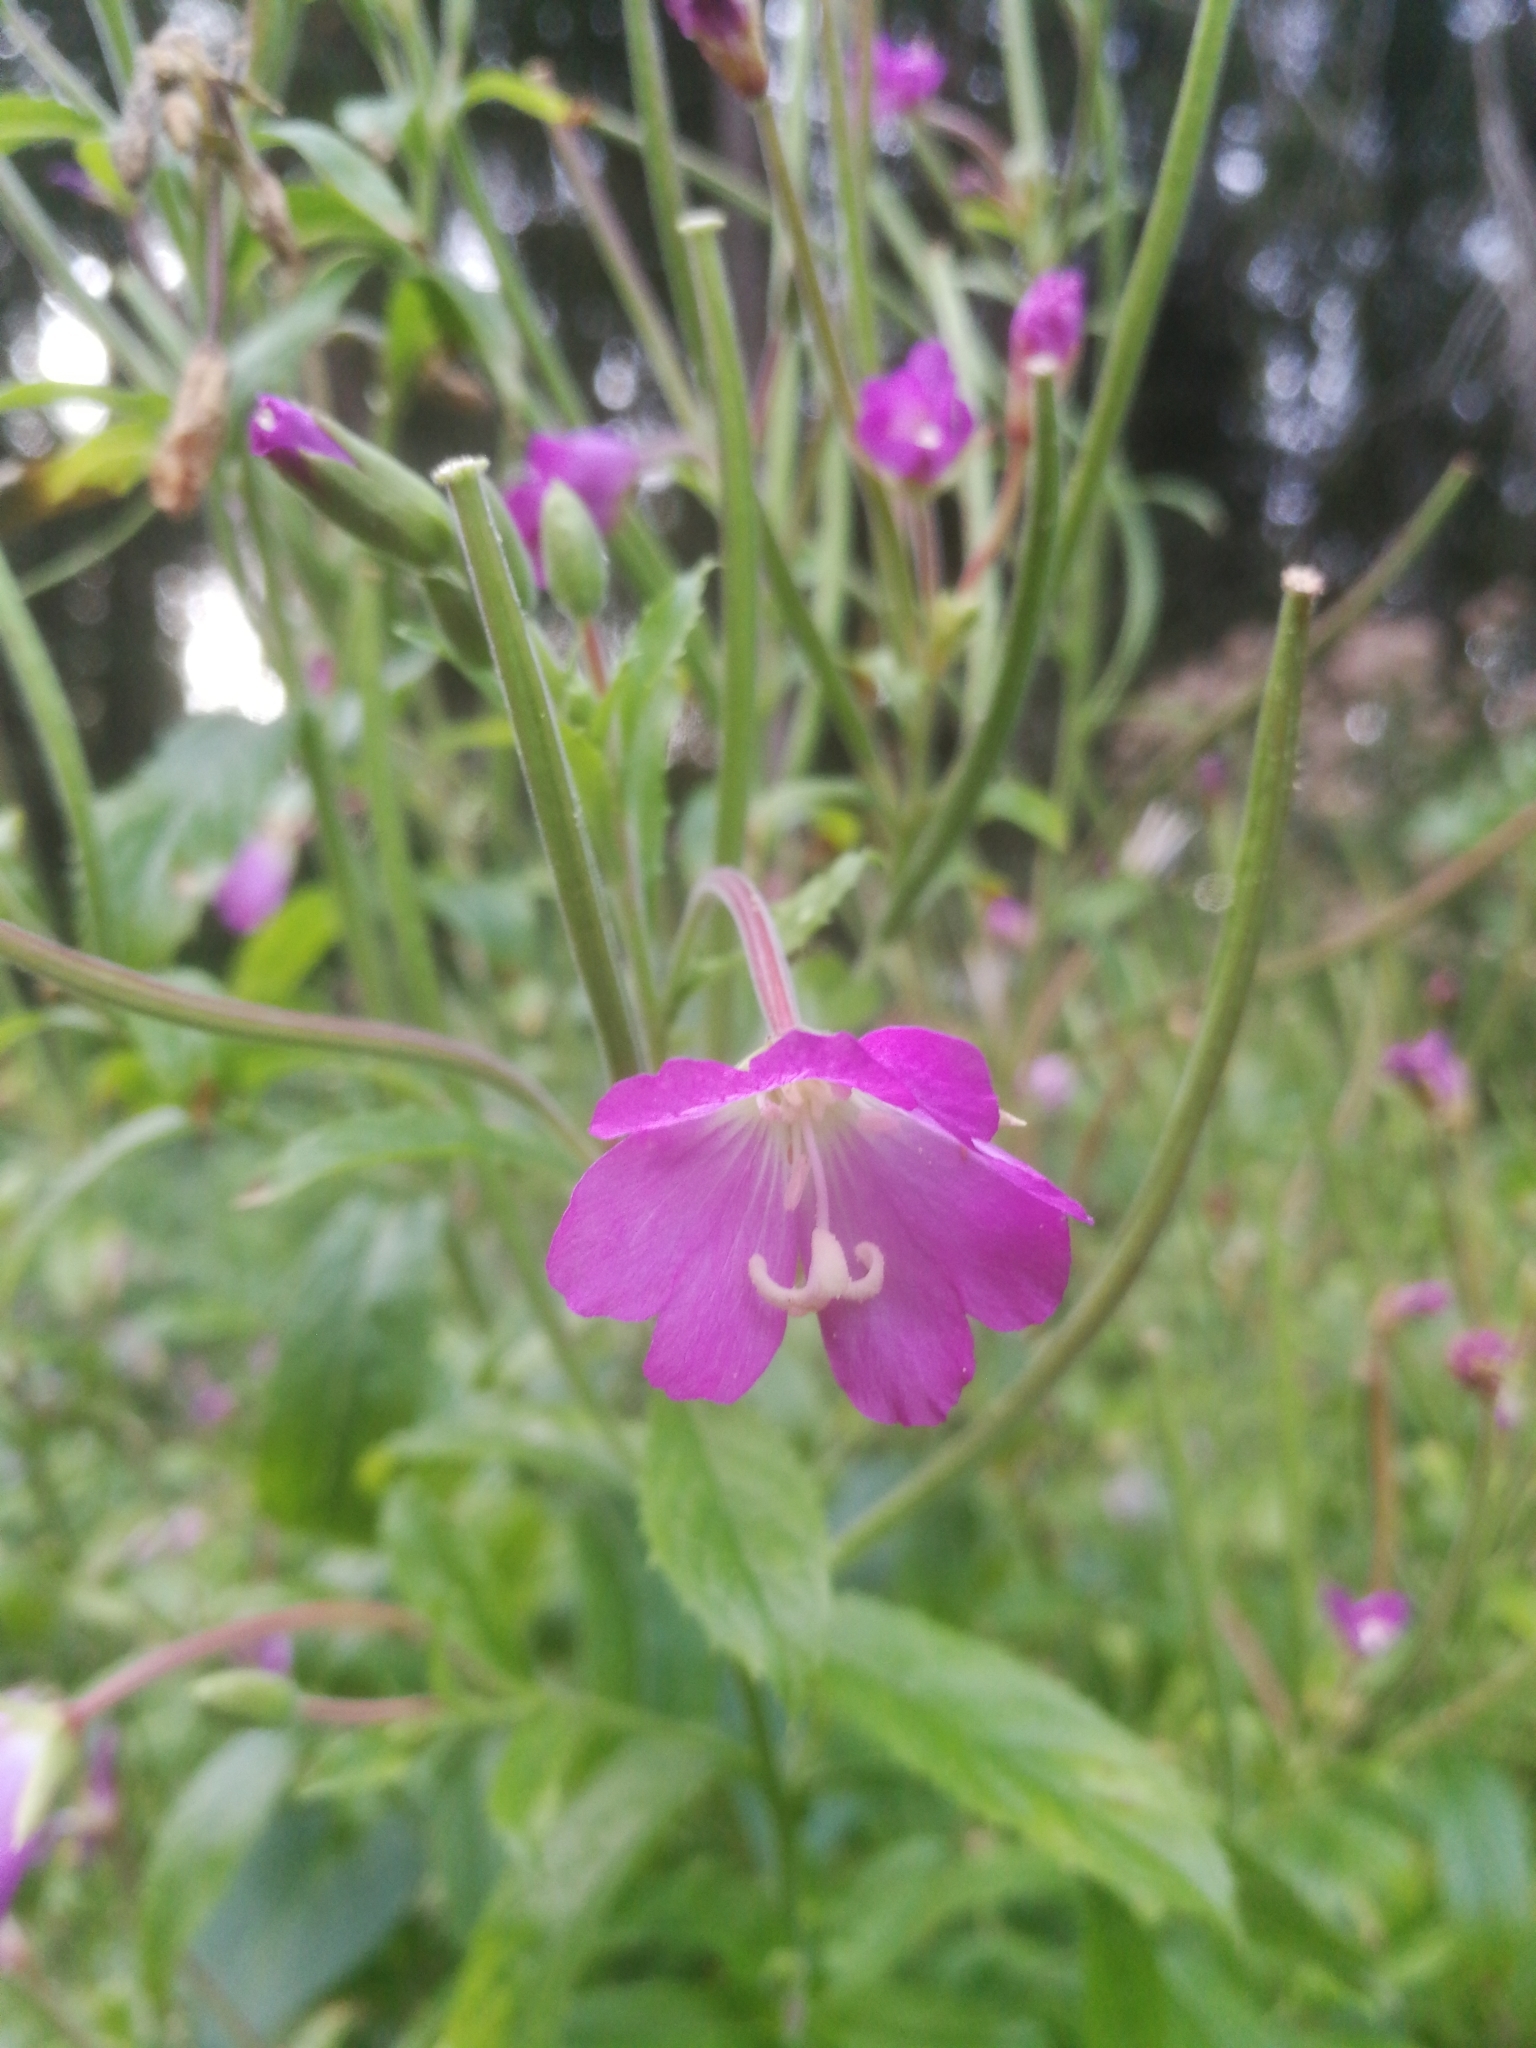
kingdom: Plantae
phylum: Tracheophyta
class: Magnoliopsida
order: Myrtales
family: Onagraceae
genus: Epilobium
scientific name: Epilobium hirsutum
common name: Great willowherb
